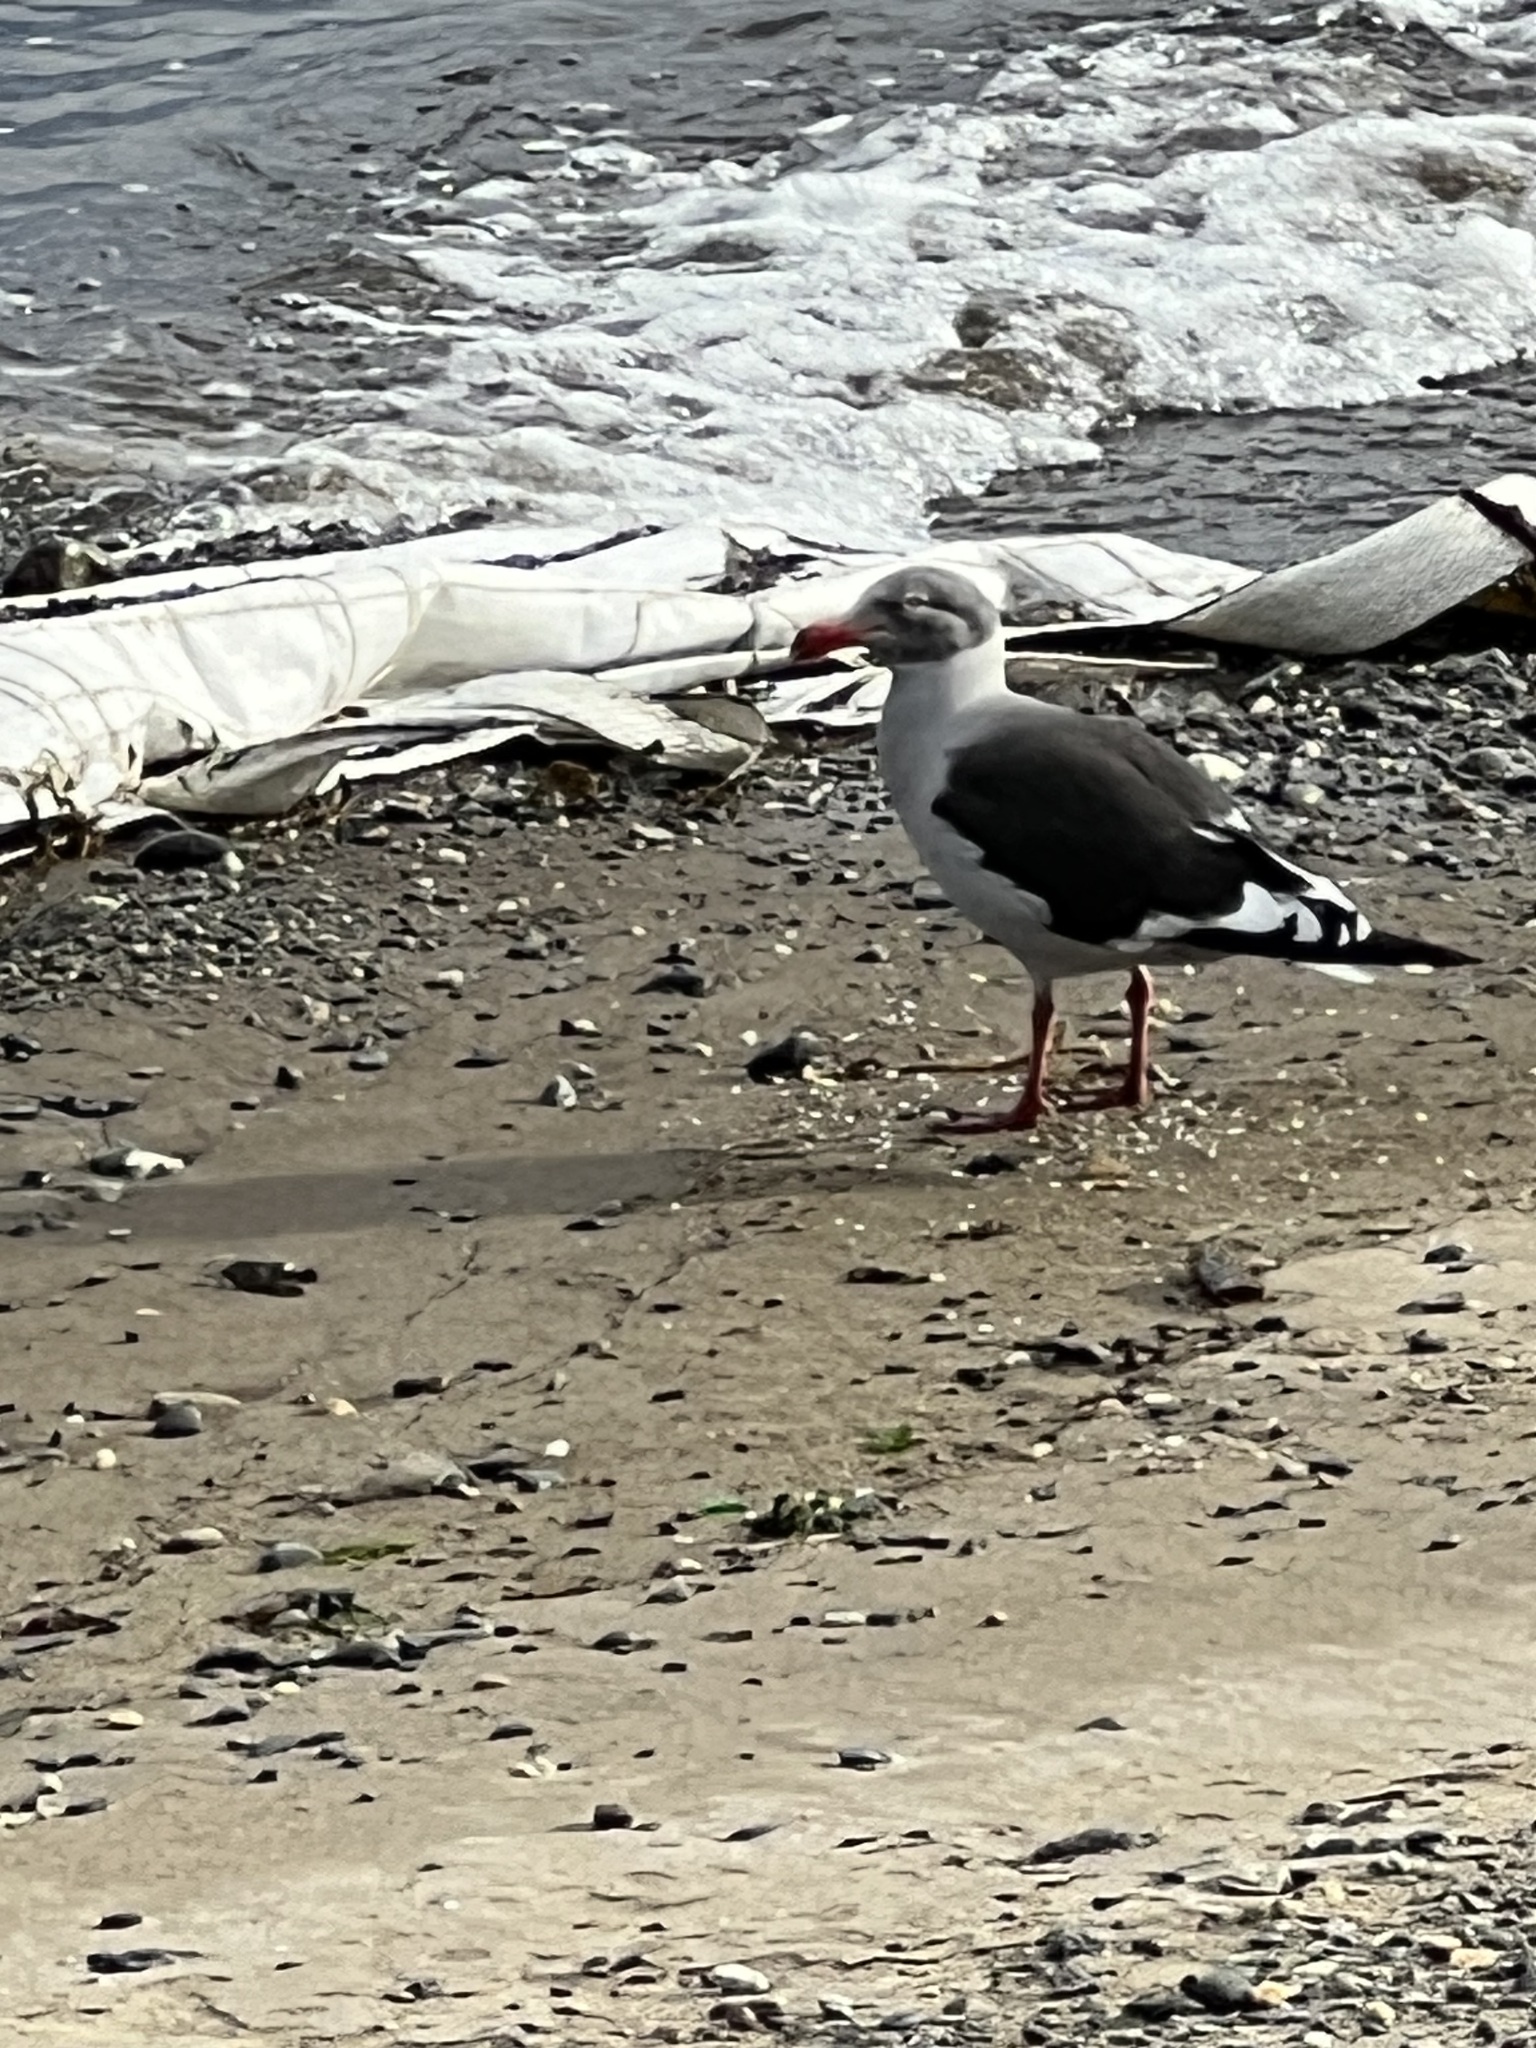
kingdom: Animalia
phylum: Chordata
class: Aves
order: Charadriiformes
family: Laridae
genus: Leucophaeus
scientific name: Leucophaeus scoresbii
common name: Dolphin gull
